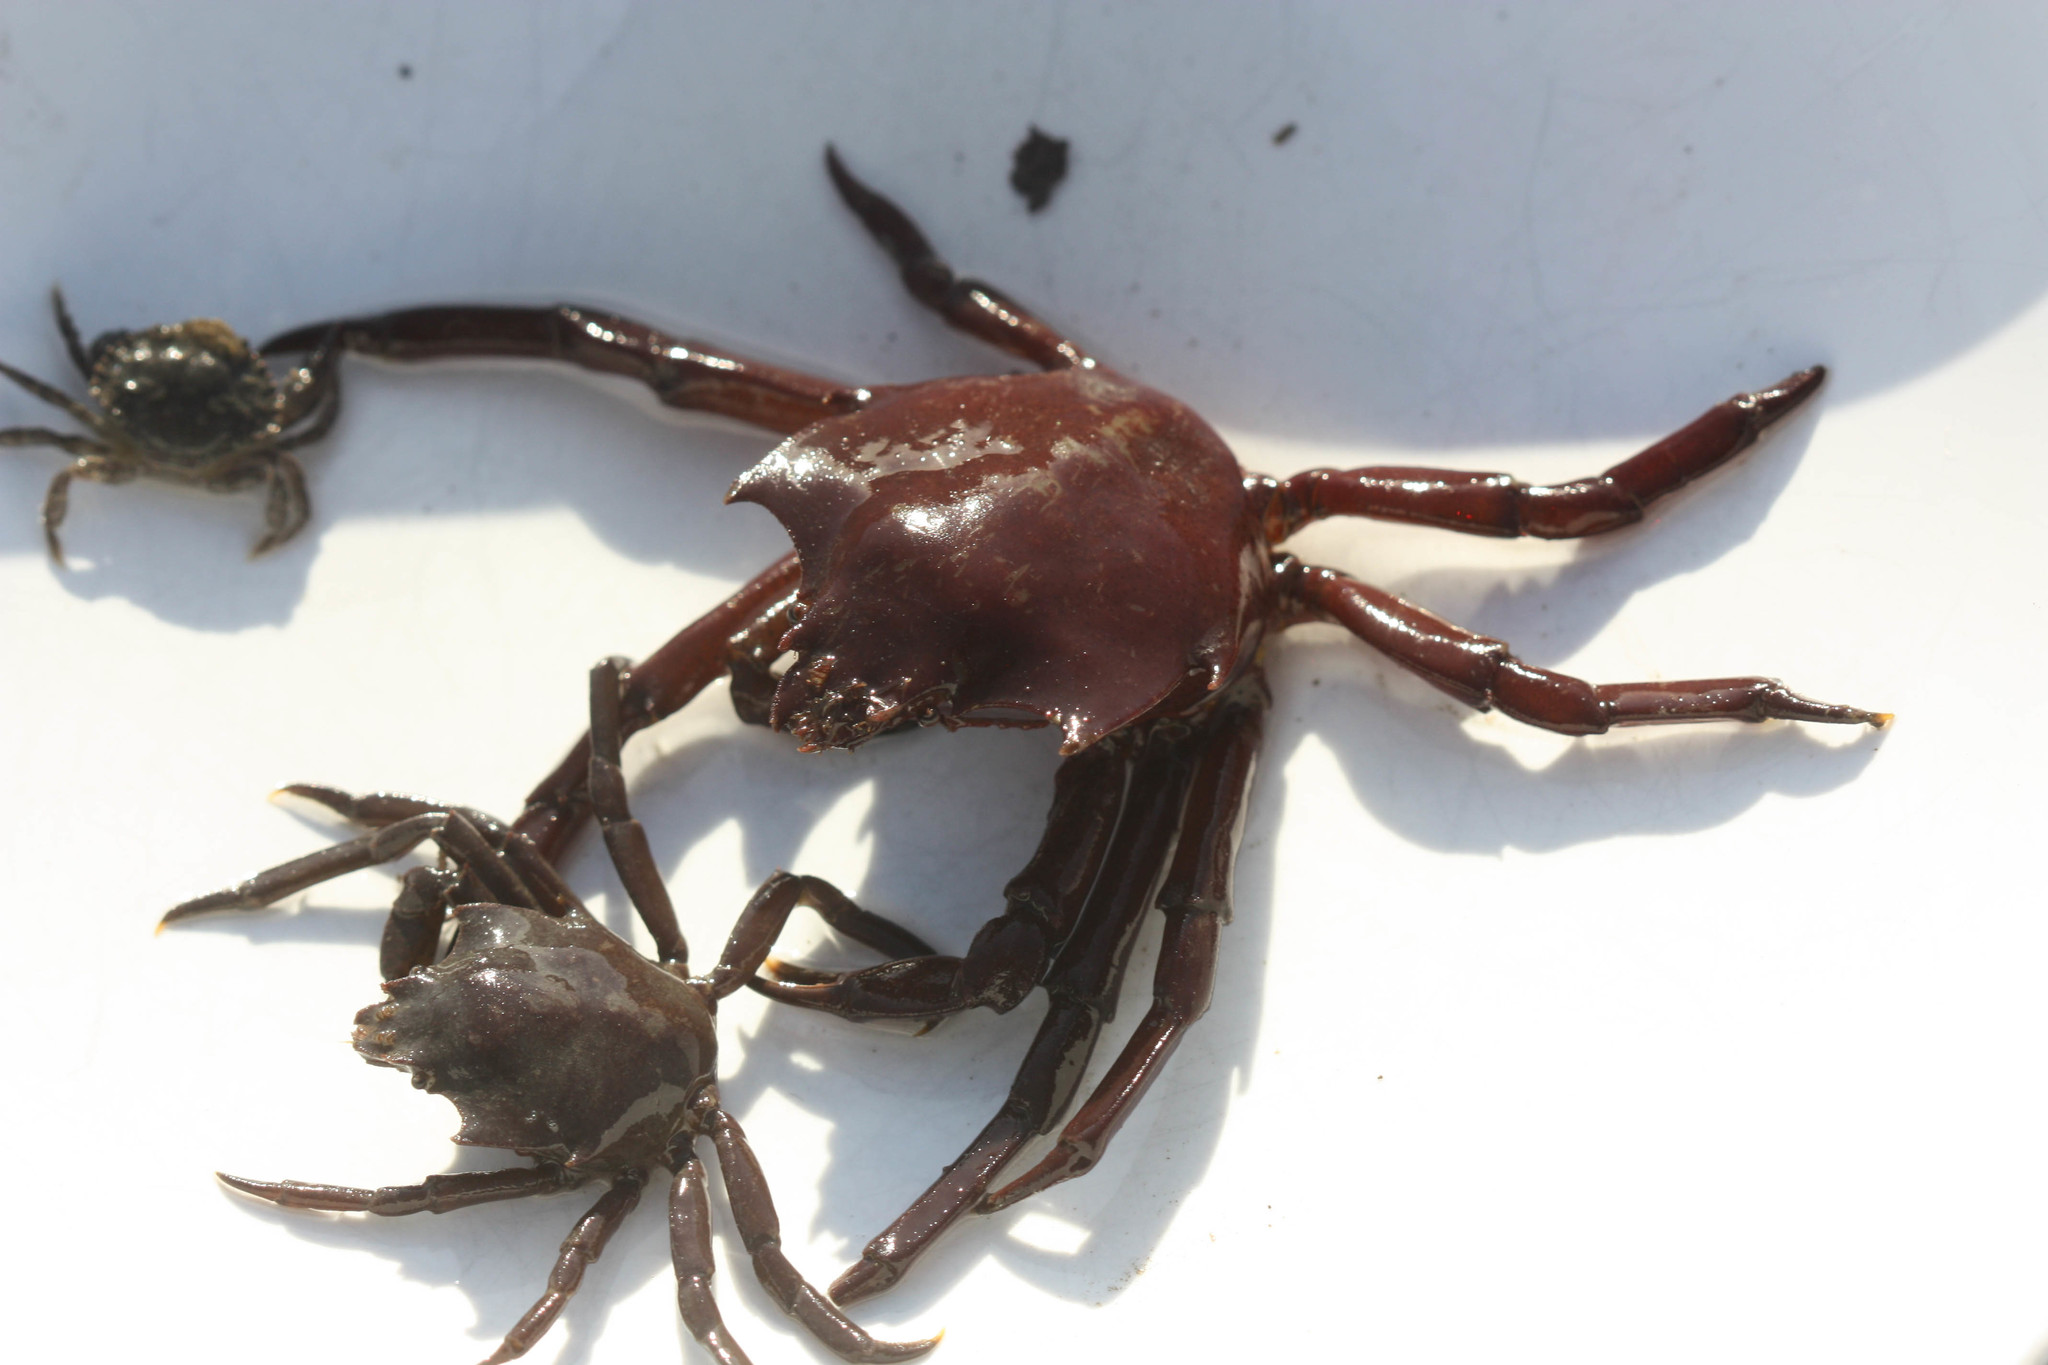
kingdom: Animalia
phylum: Arthropoda
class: Malacostraca
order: Decapoda
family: Epialtidae
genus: Pugettia
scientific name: Pugettia producta
